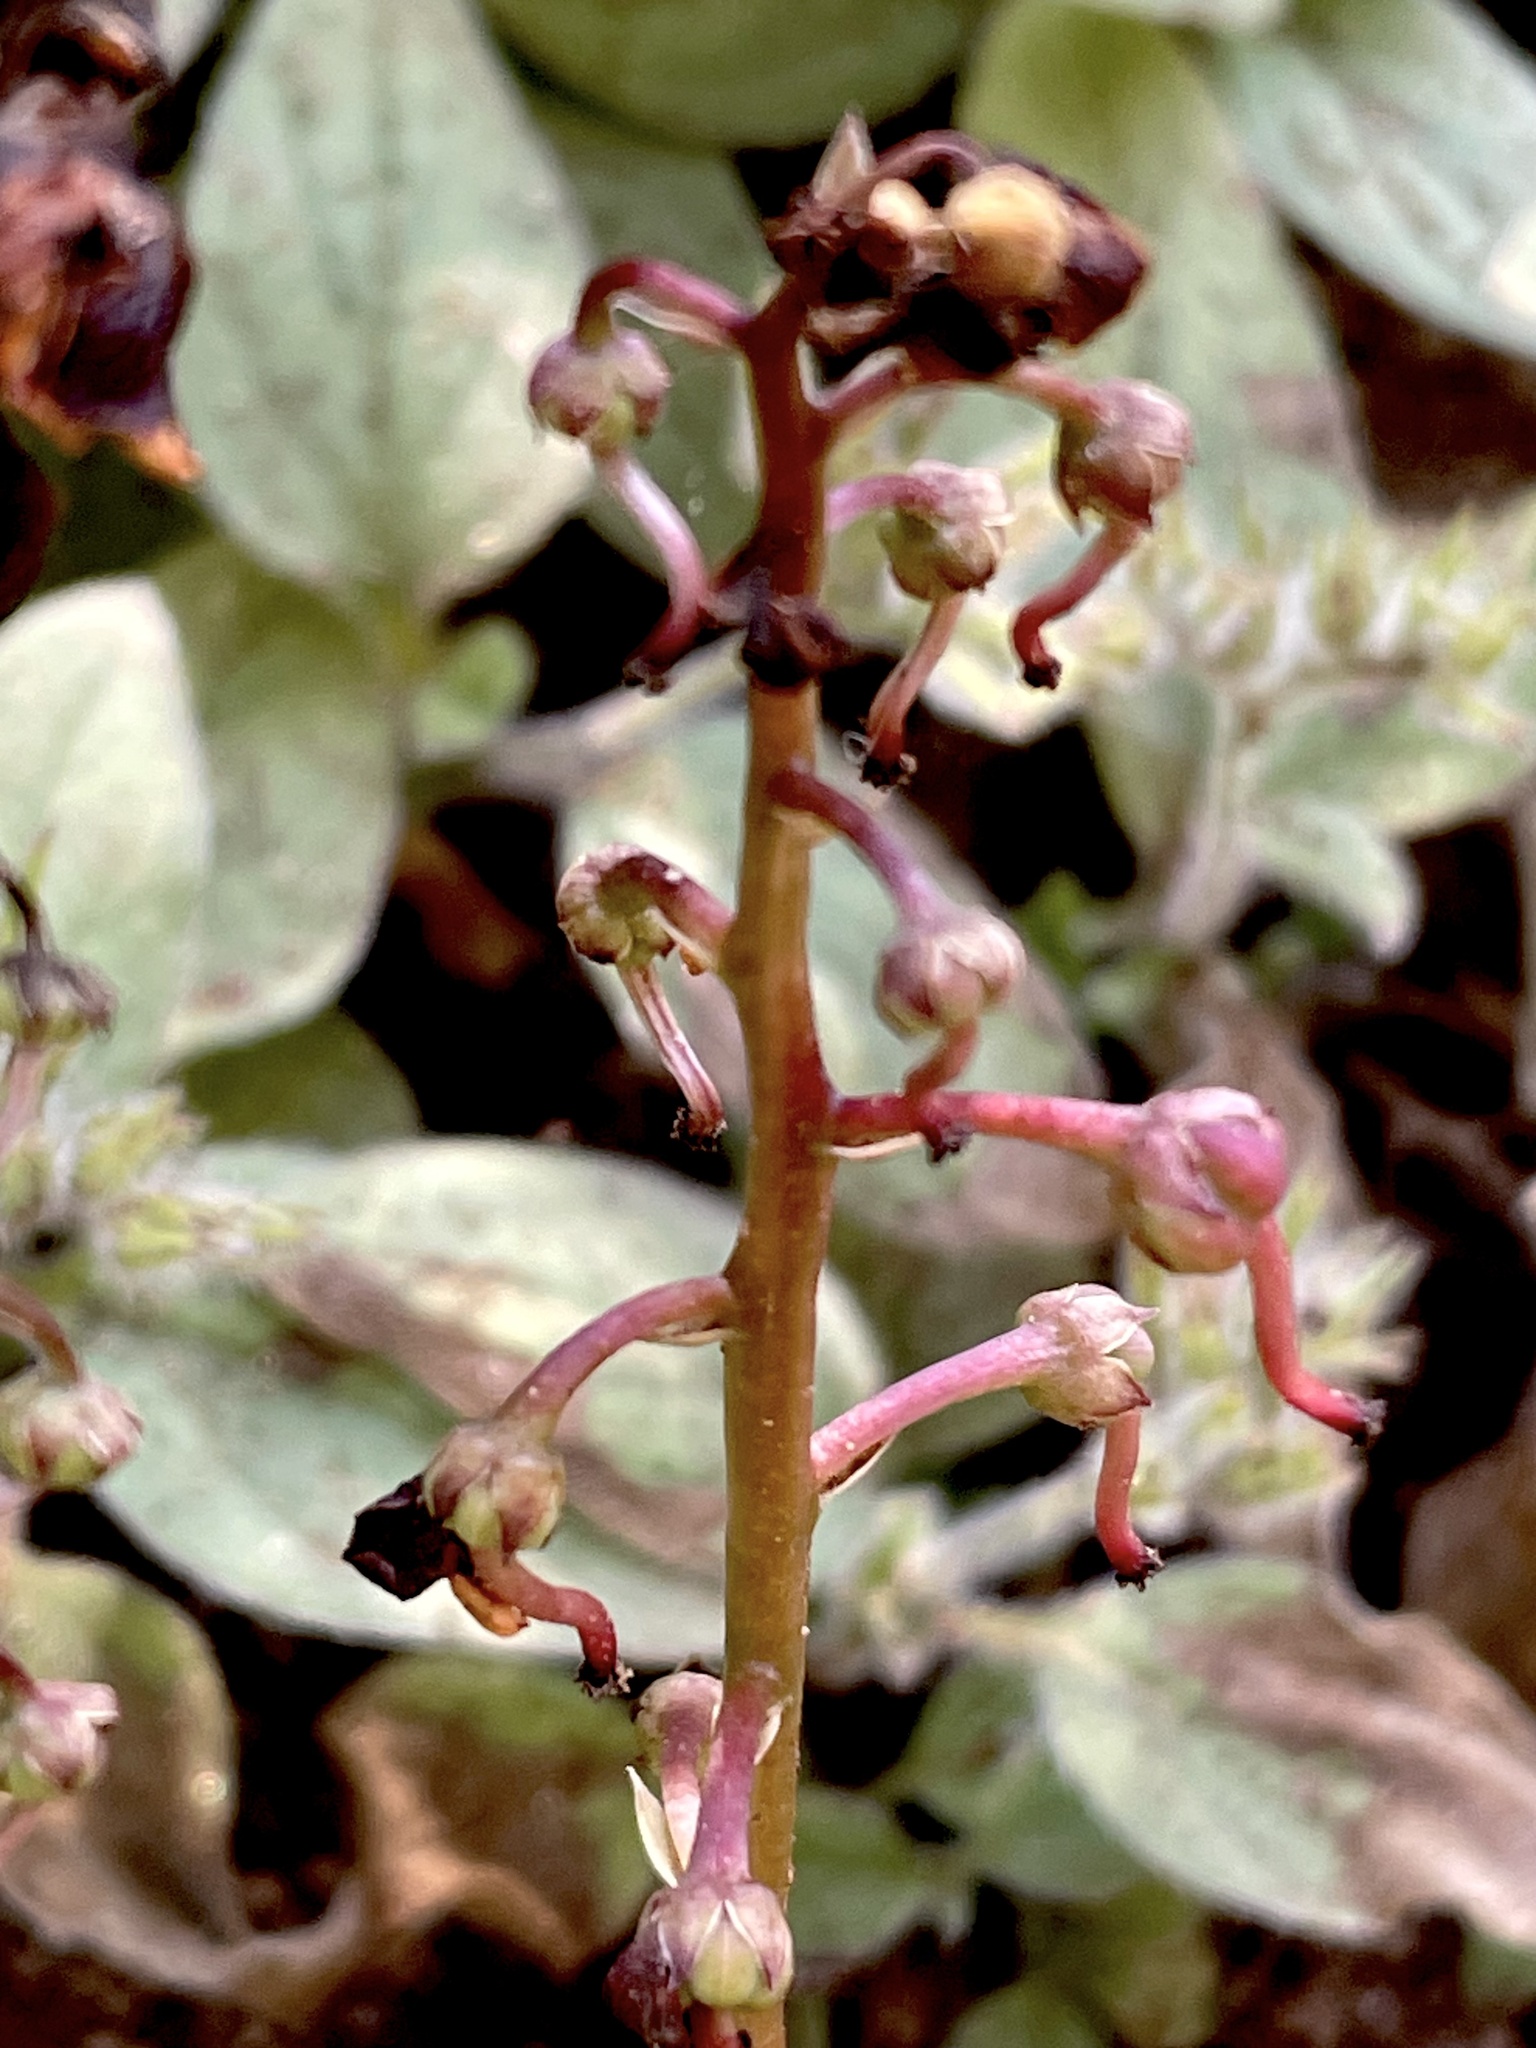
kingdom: Plantae
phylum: Tracheophyta
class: Magnoliopsida
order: Ericales
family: Ericaceae
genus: Pyrola
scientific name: Pyrola picta
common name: White-vein wintergreen
